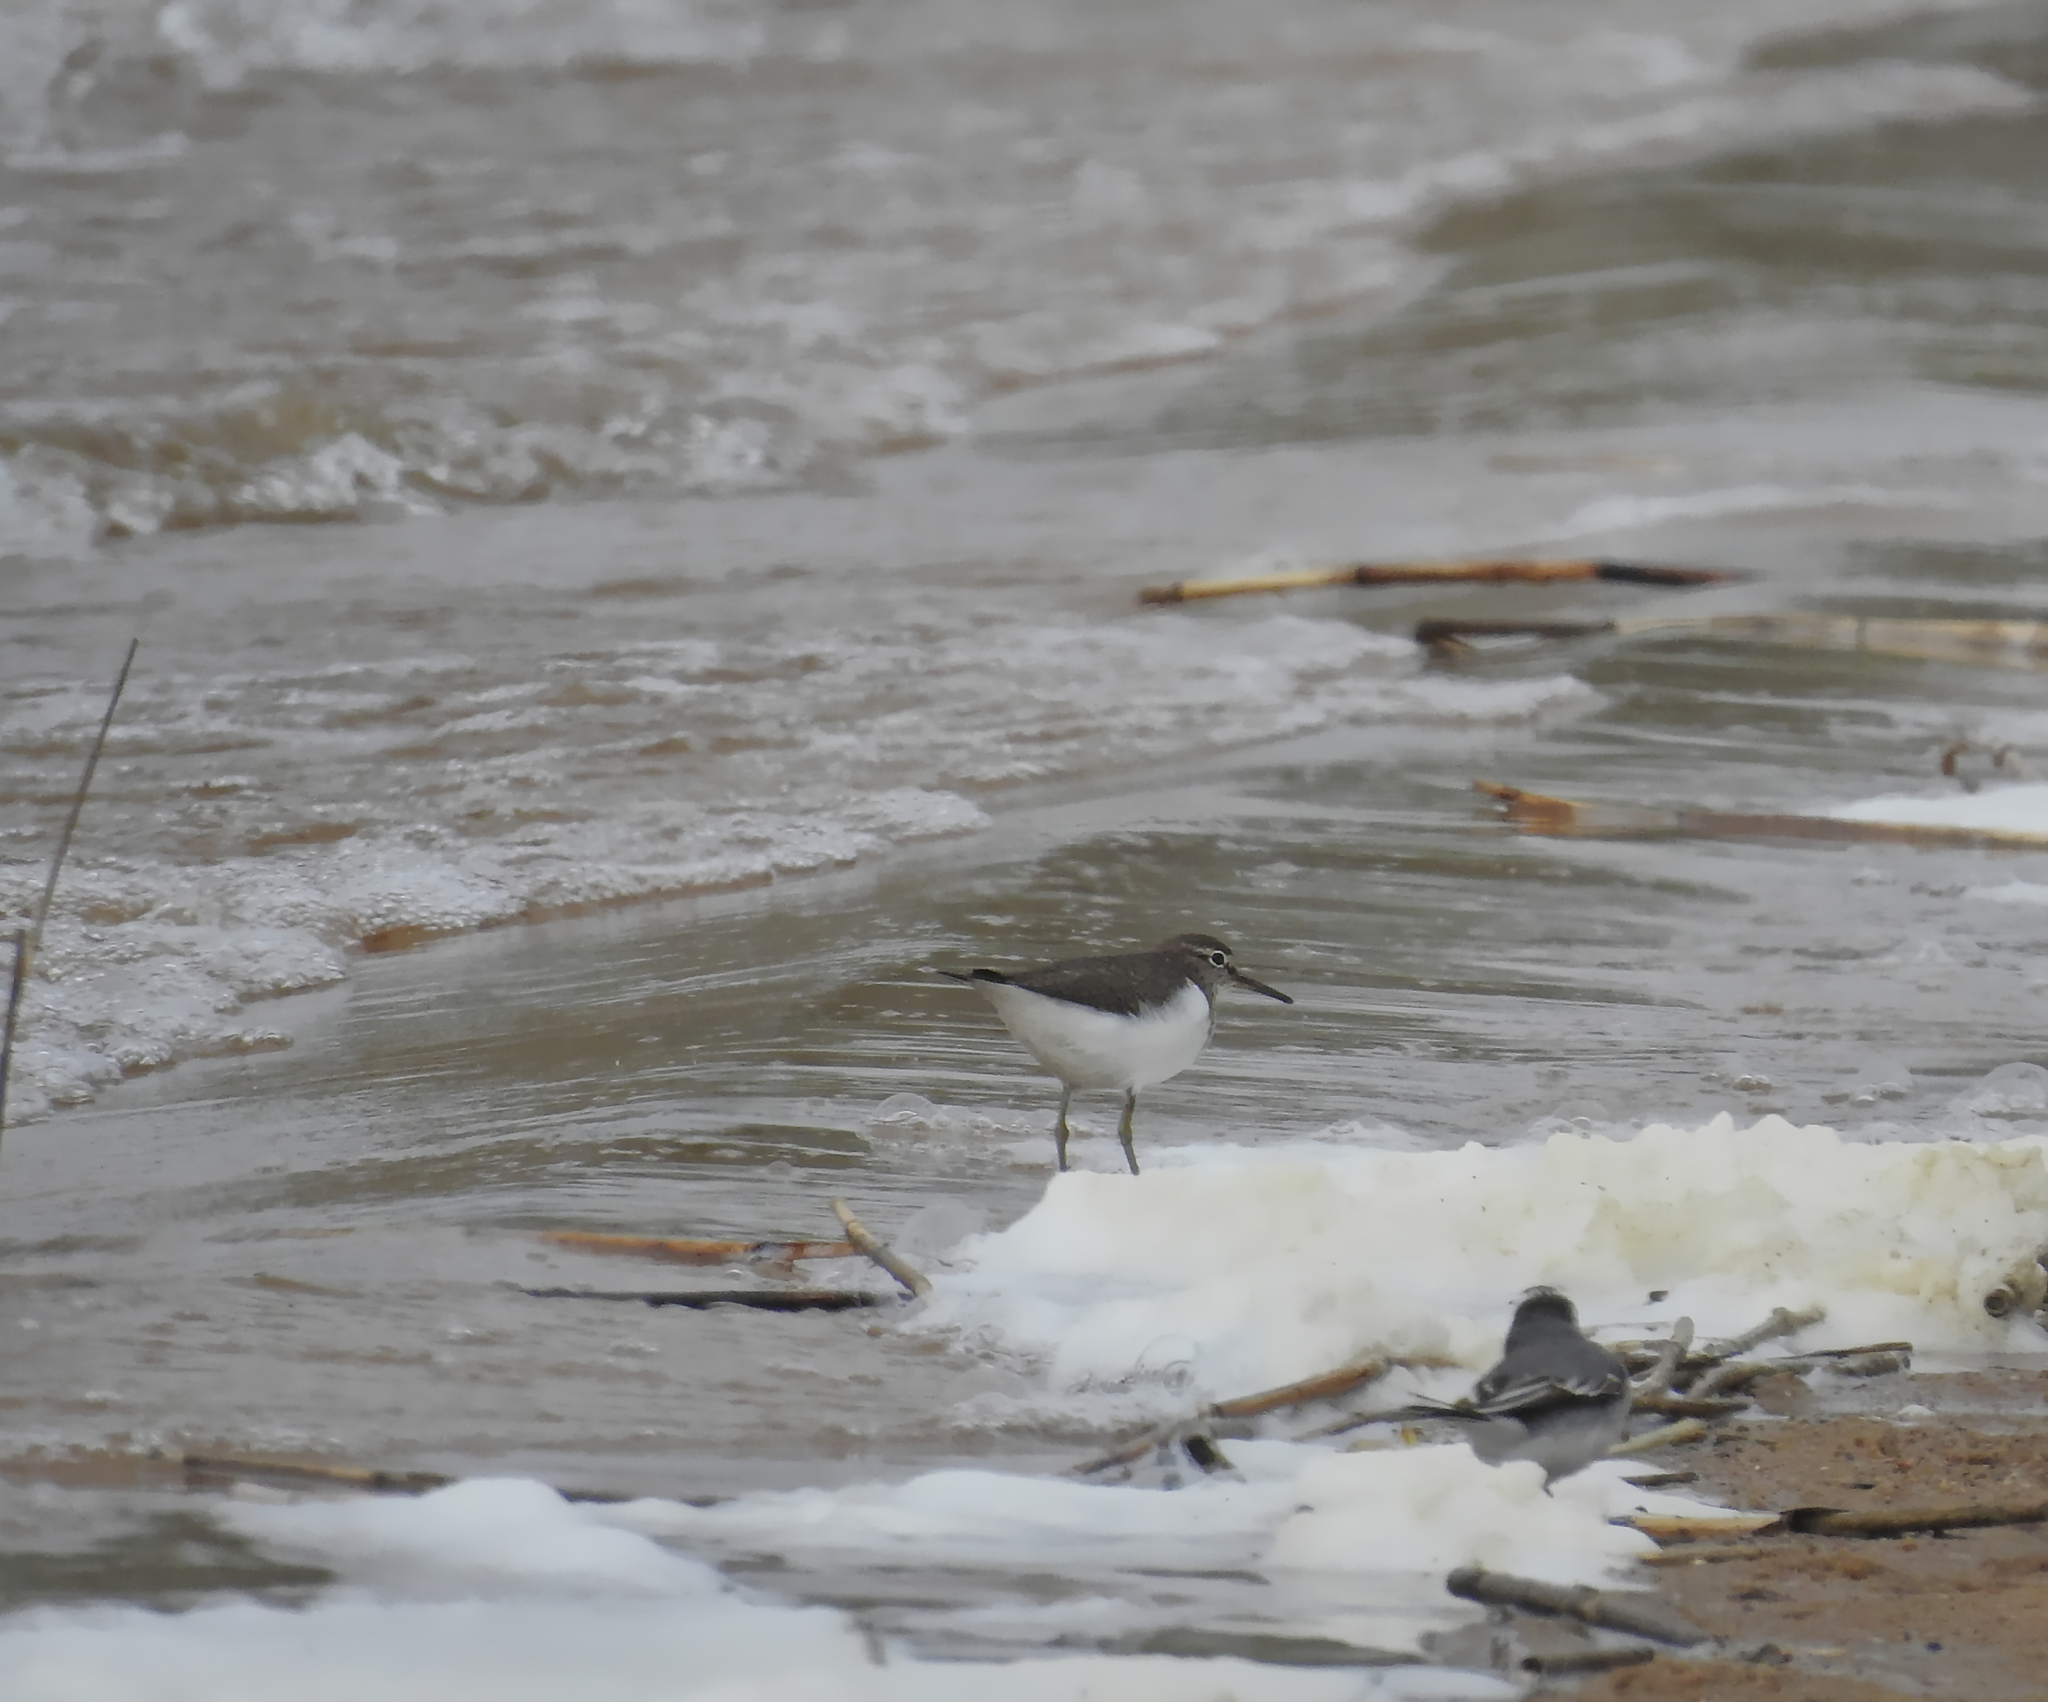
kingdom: Animalia
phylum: Chordata
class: Aves
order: Passeriformes
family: Motacillidae
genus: Motacilla
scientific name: Motacilla alba
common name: White wagtail
